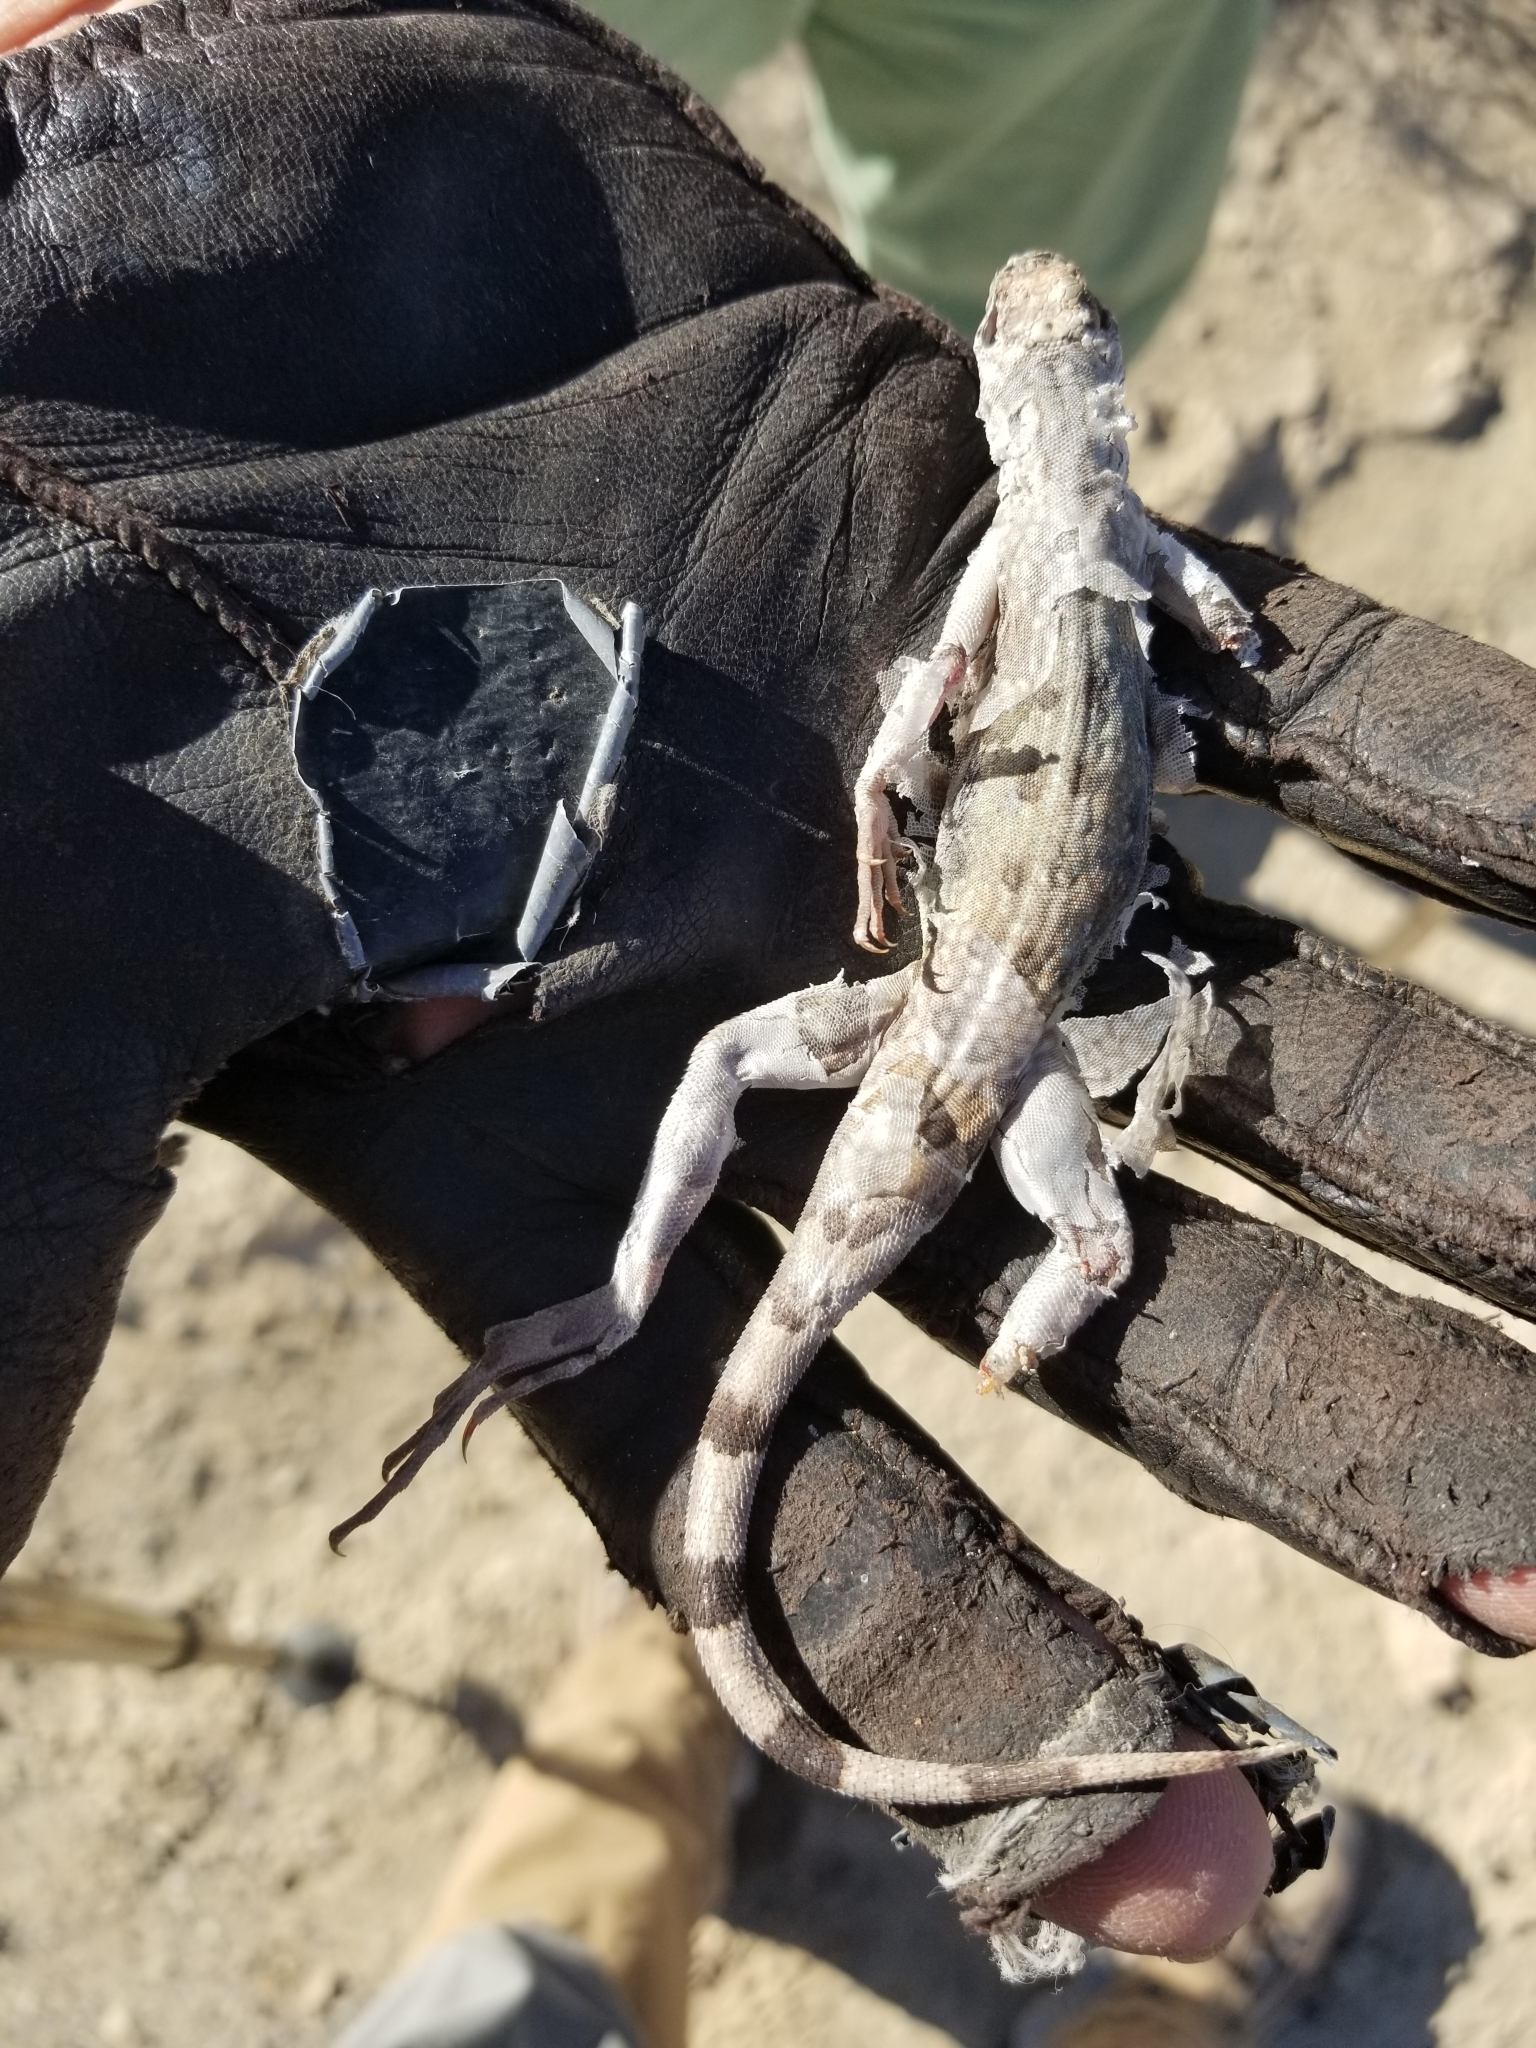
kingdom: Animalia
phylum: Chordata
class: Squamata
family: Phrynosomatidae
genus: Callisaurus
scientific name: Callisaurus draconoides
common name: Zebra-tailed lizard
